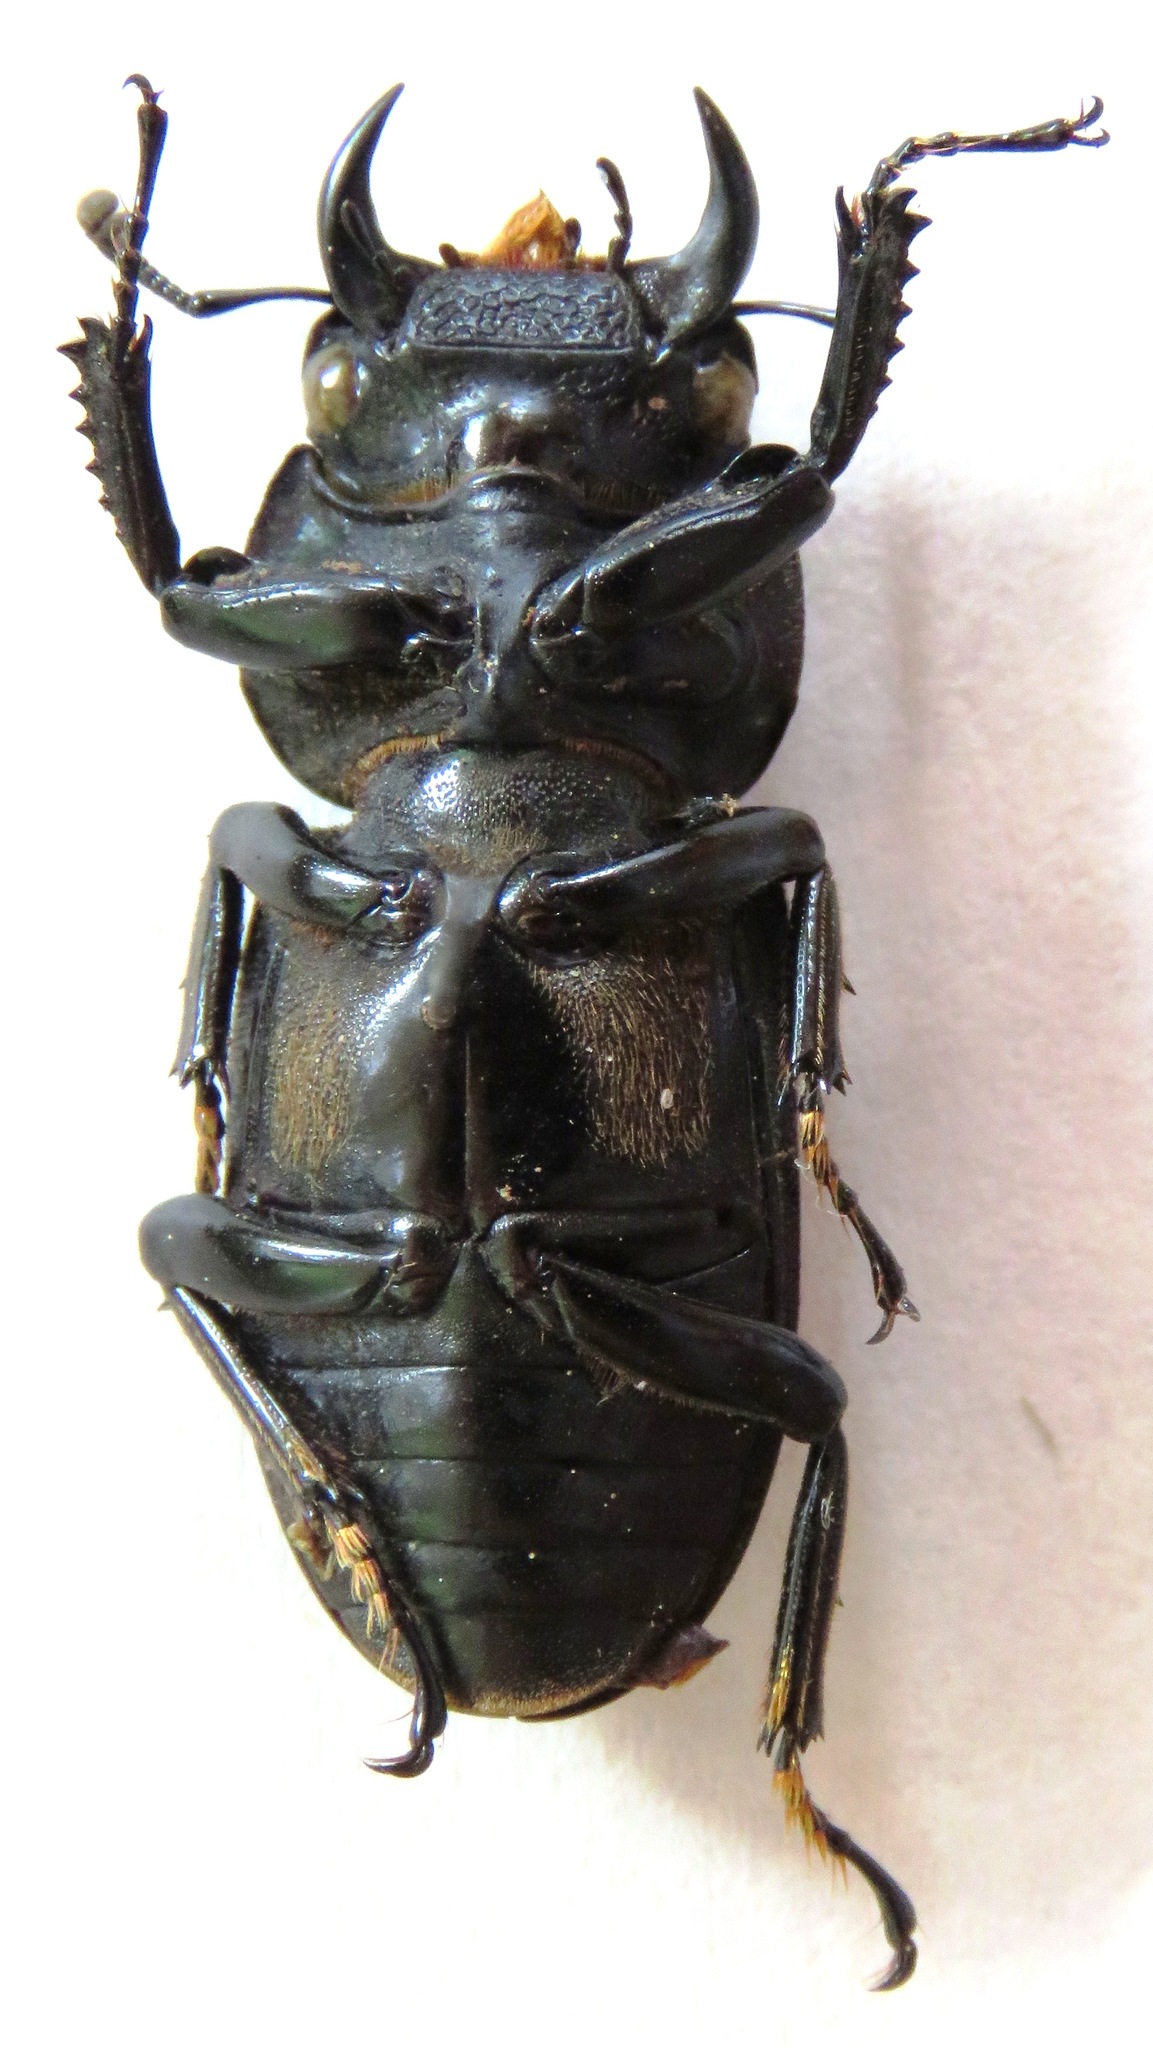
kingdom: Animalia
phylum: Arthropoda
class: Insecta
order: Coleoptera
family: Lucanidae
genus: Dorcus
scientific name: Dorcus yaksha
